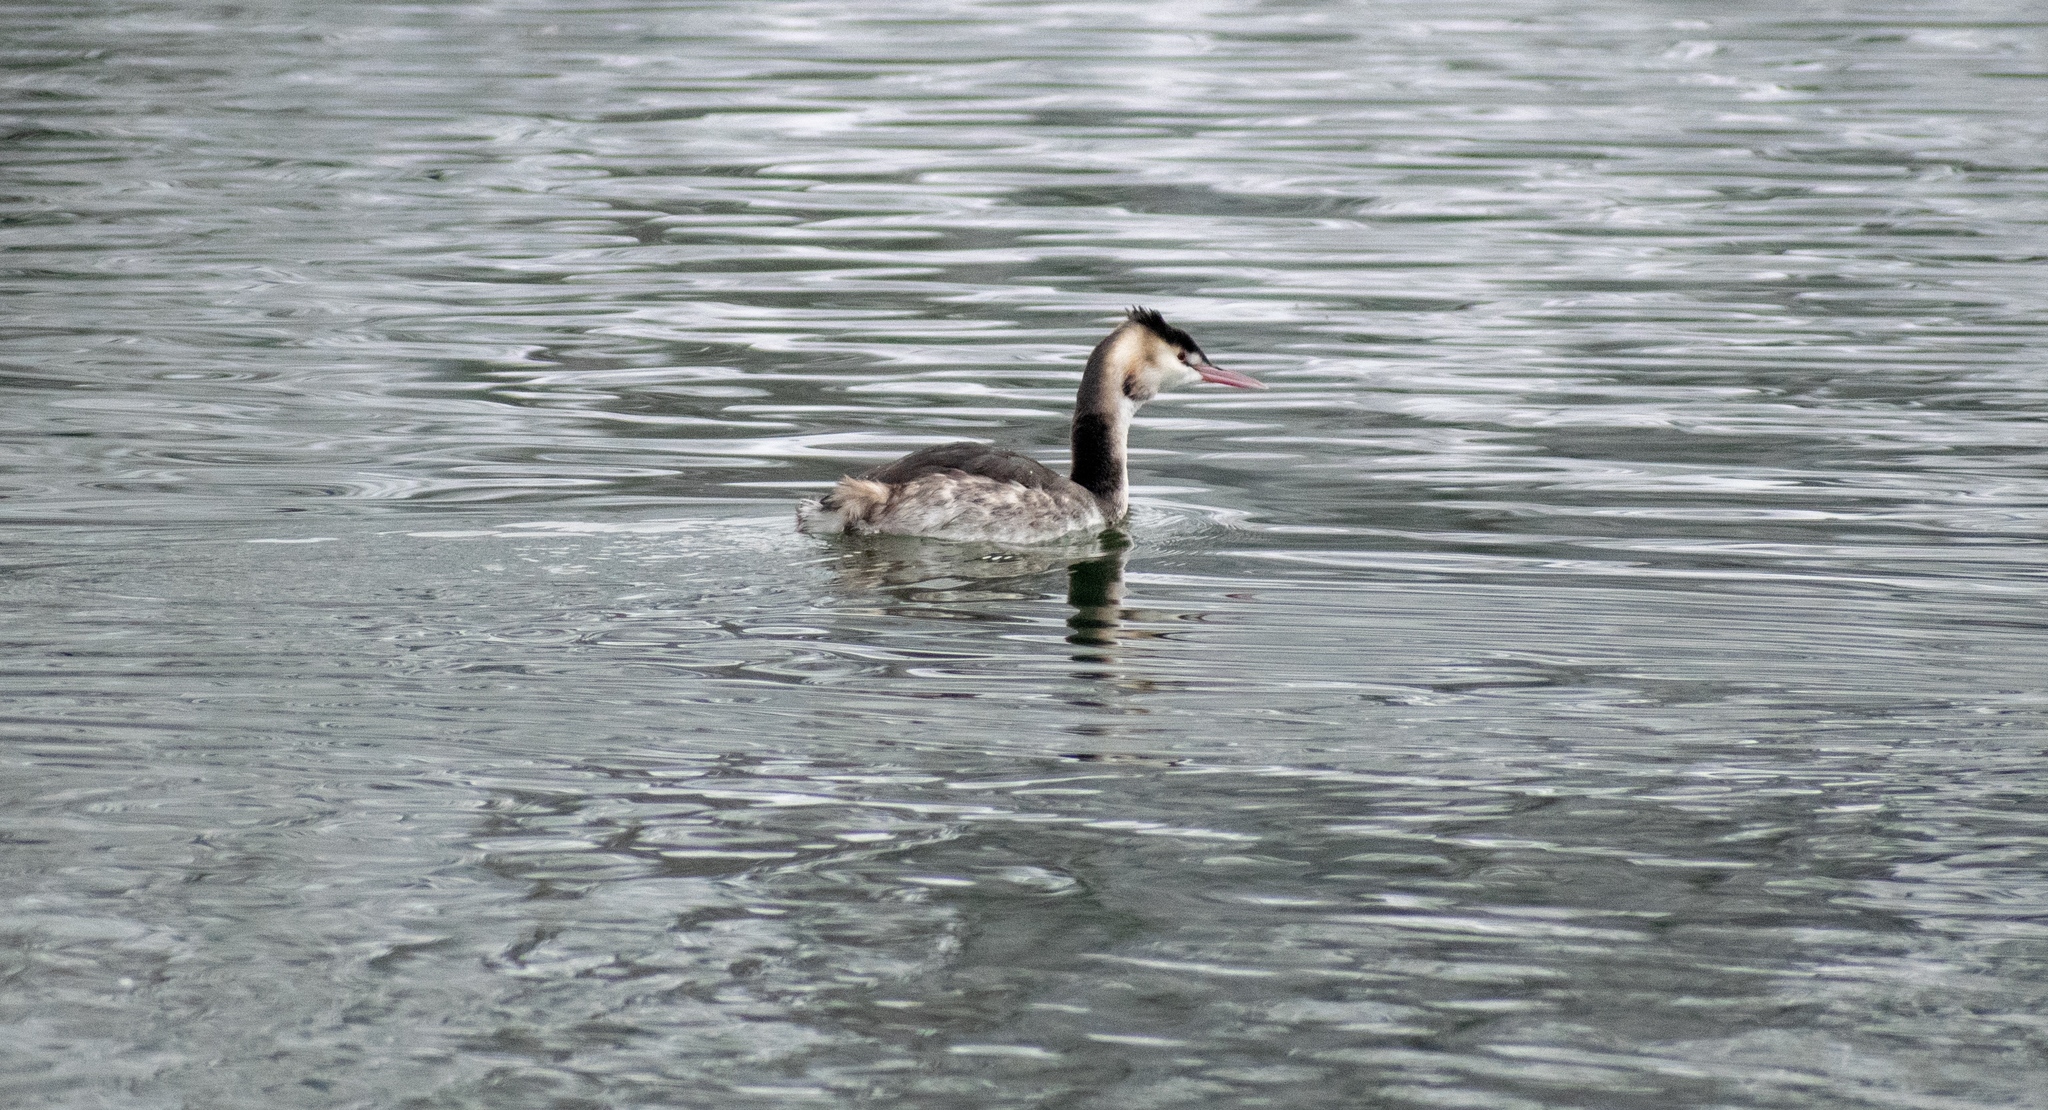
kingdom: Animalia
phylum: Chordata
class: Aves
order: Podicipediformes
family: Podicipedidae
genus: Podiceps
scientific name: Podiceps cristatus
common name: Great crested grebe
